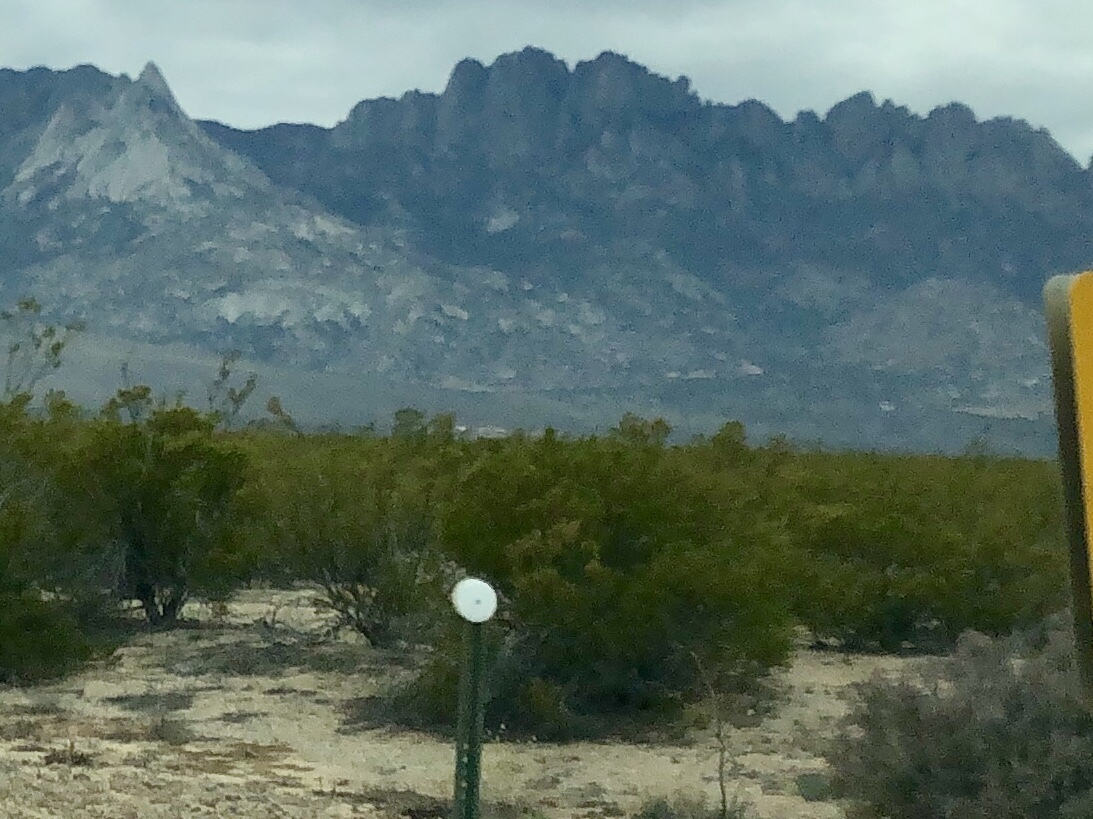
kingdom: Plantae
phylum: Tracheophyta
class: Magnoliopsida
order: Zygophyllales
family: Zygophyllaceae
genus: Larrea
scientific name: Larrea tridentata
